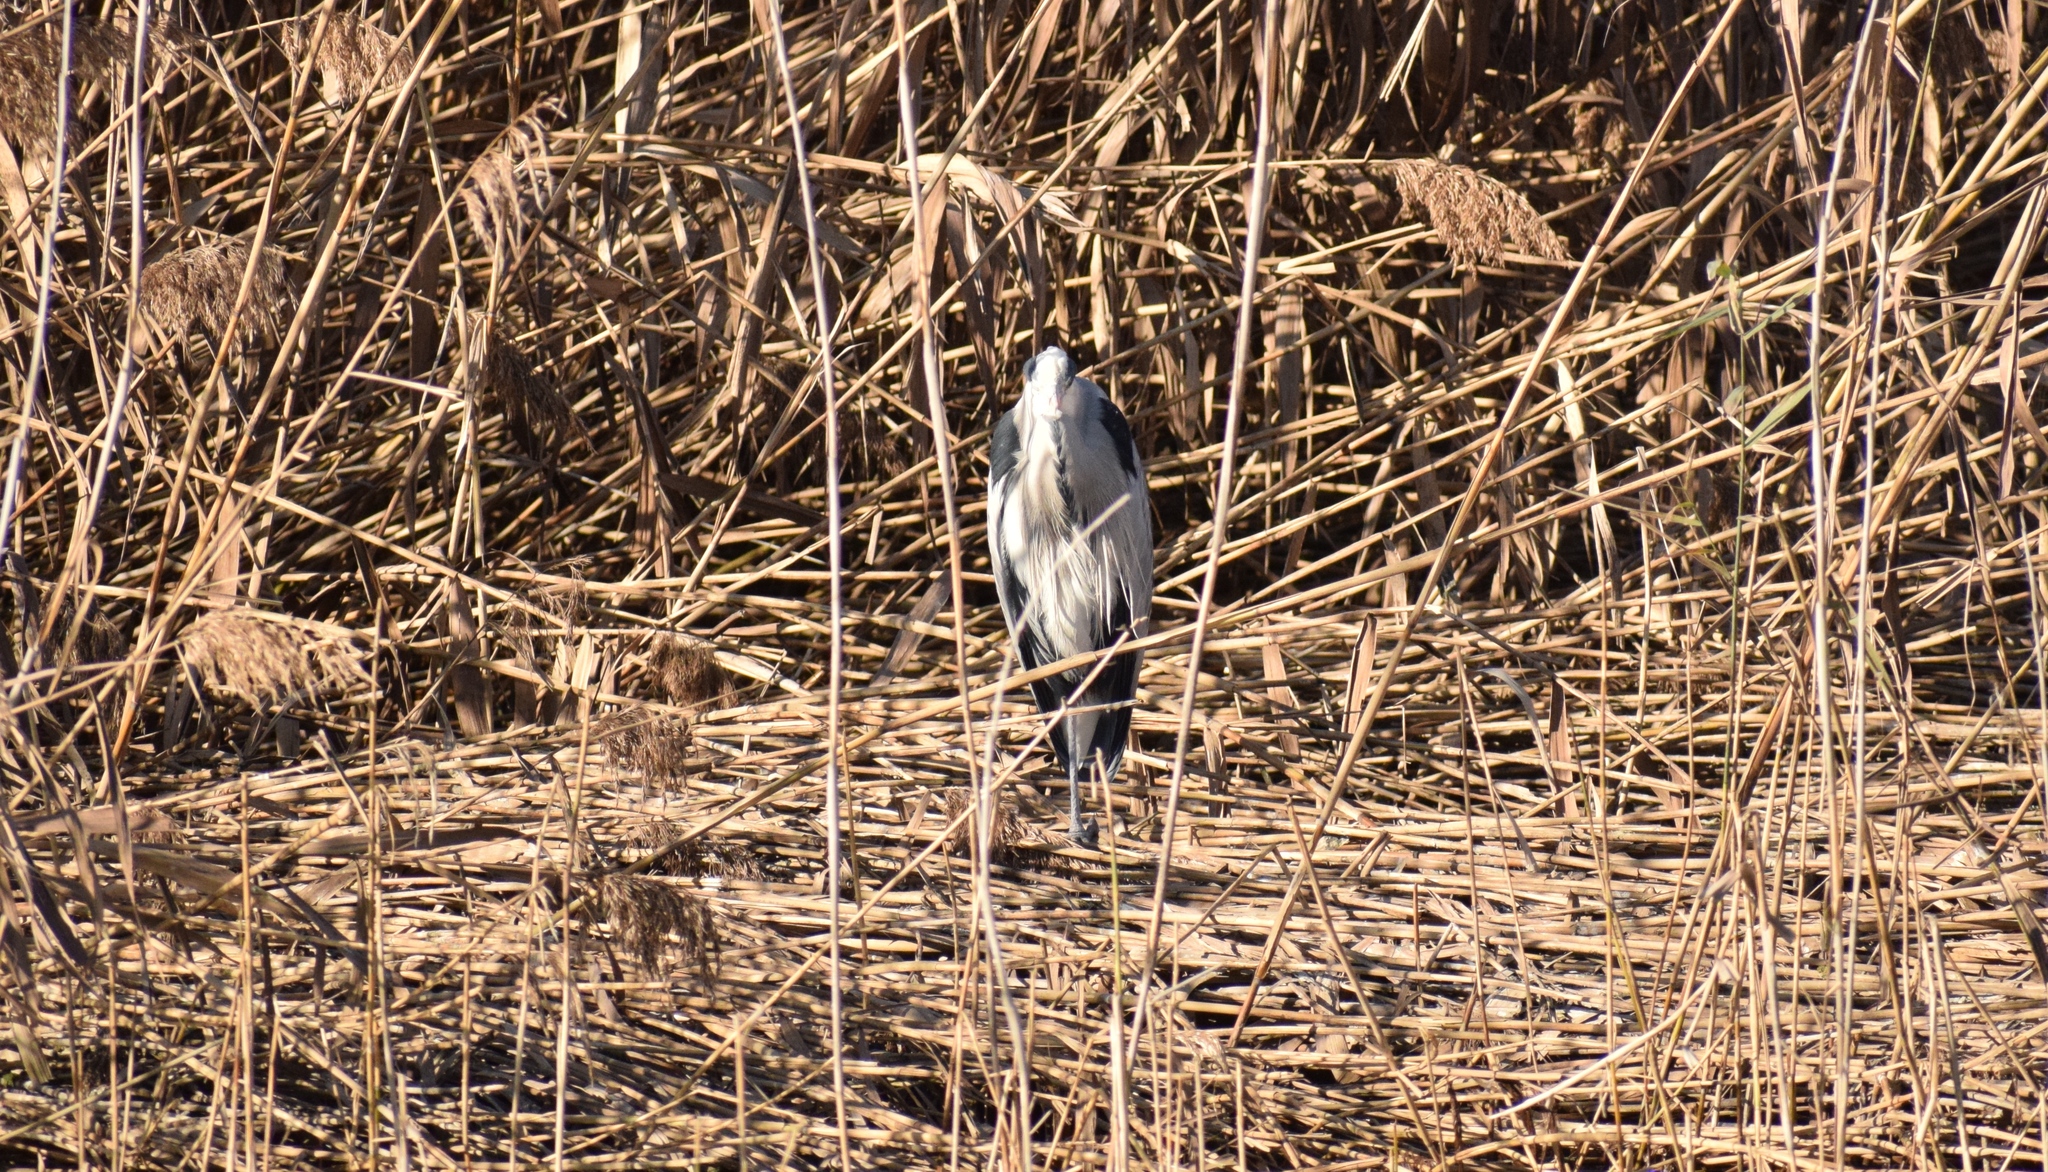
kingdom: Animalia
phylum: Chordata
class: Aves
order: Pelecaniformes
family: Ardeidae
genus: Ardea
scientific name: Ardea cinerea
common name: Grey heron
